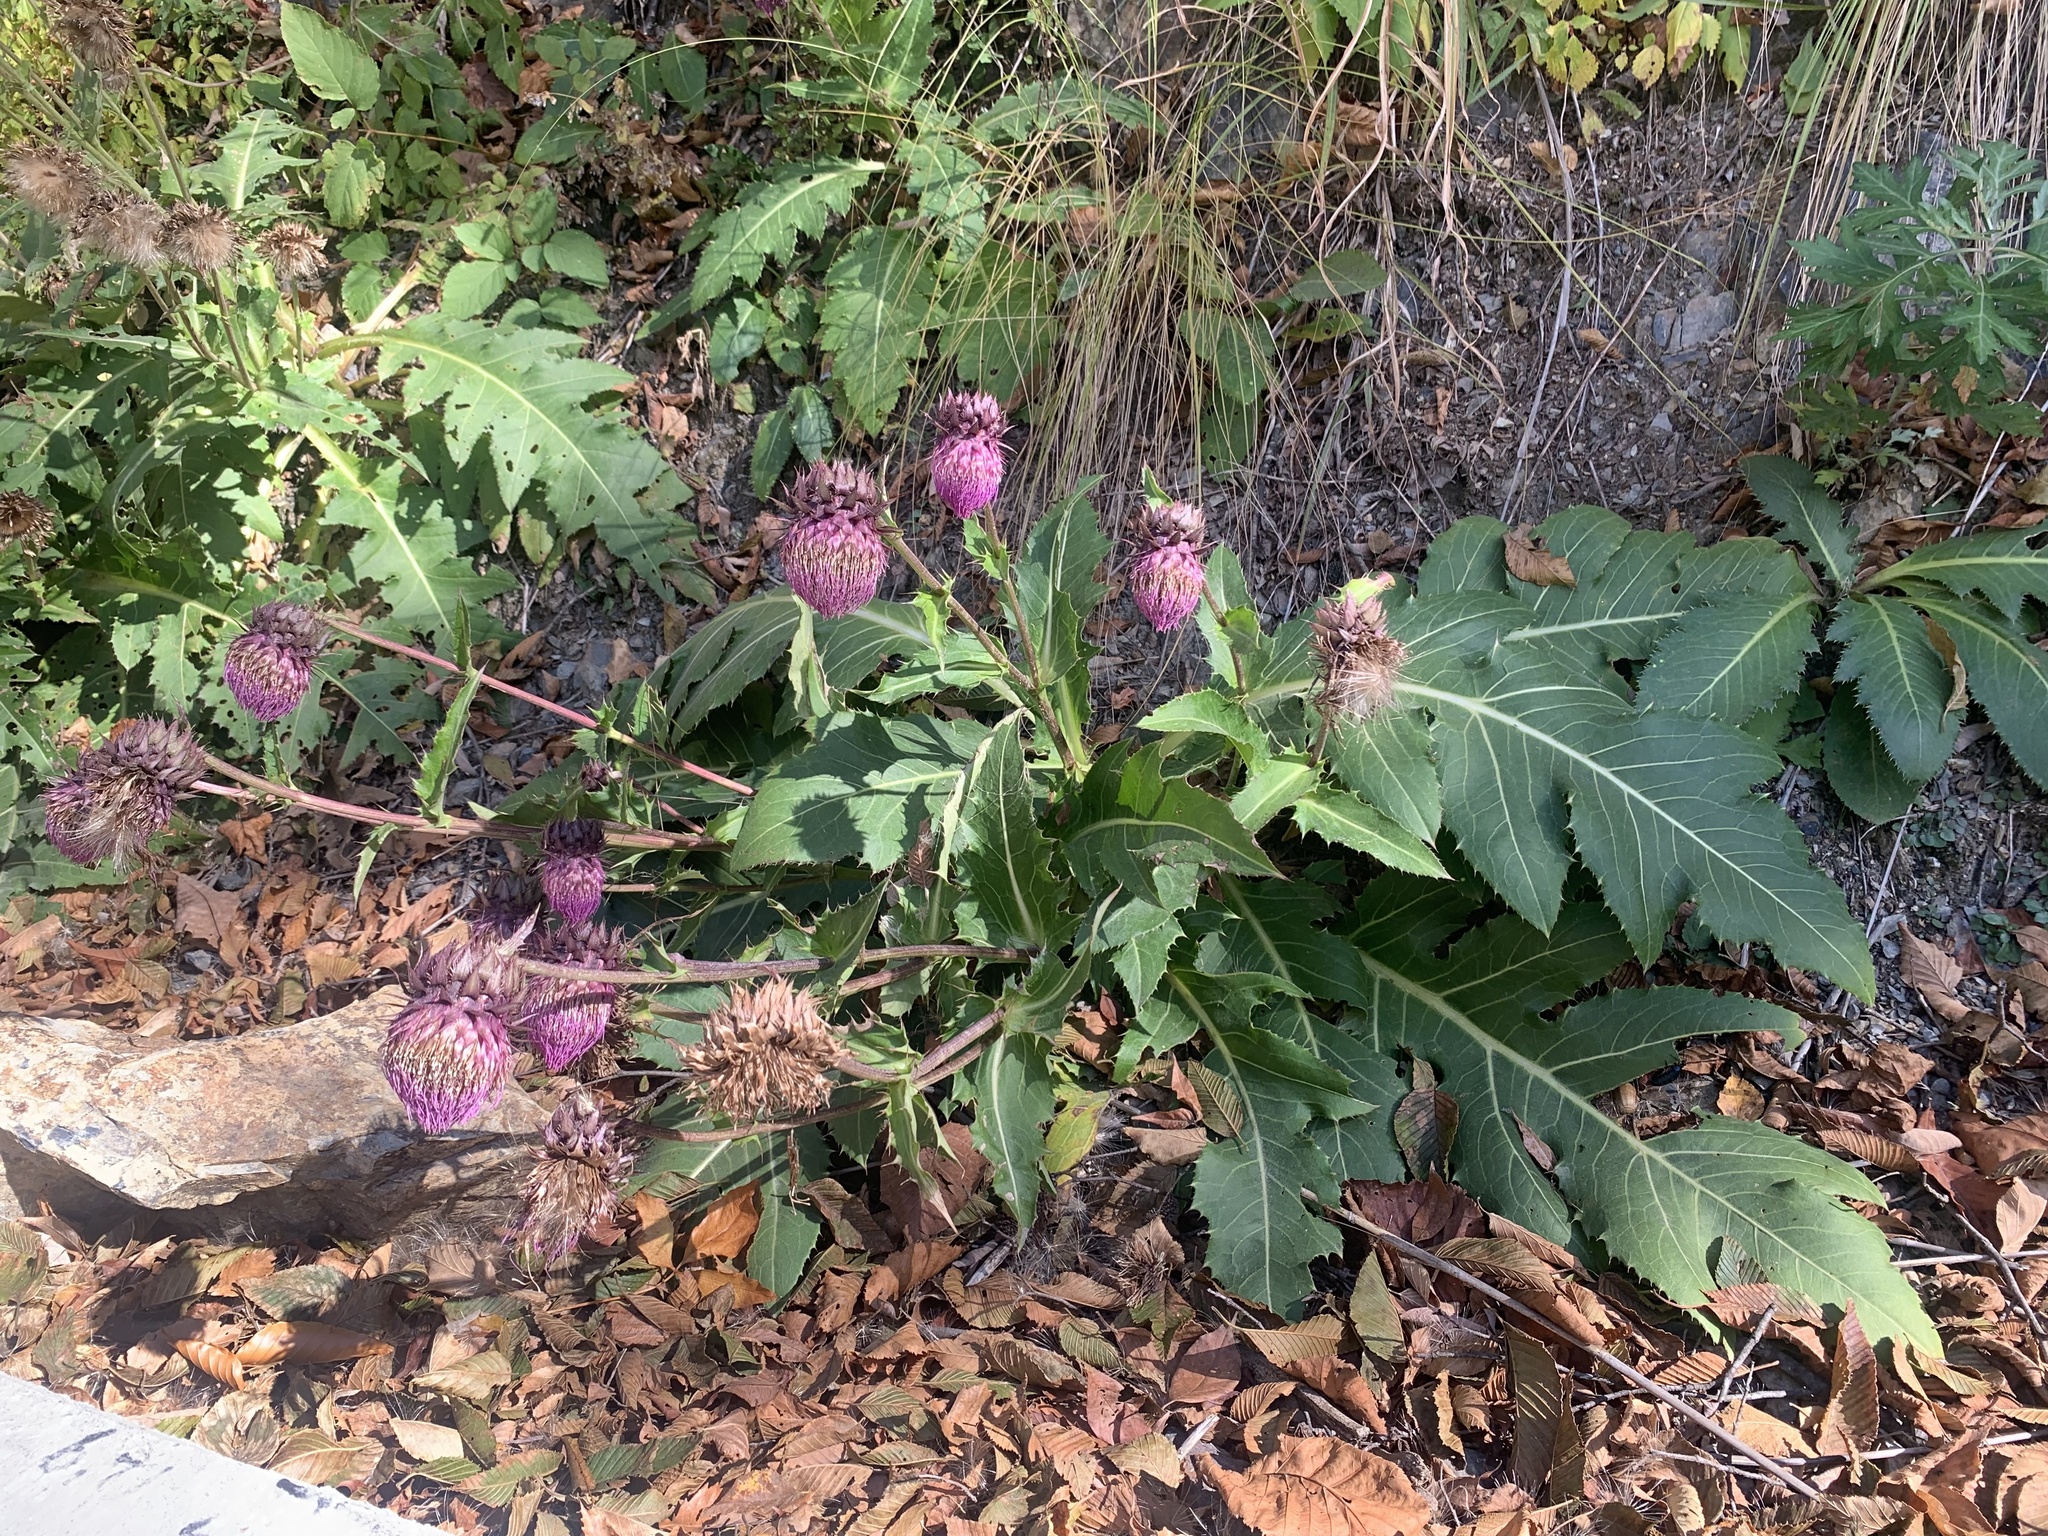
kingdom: Plantae
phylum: Tracheophyta
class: Magnoliopsida
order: Asterales
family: Asteraceae
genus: Cirsium
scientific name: Cirsium purpuratum
